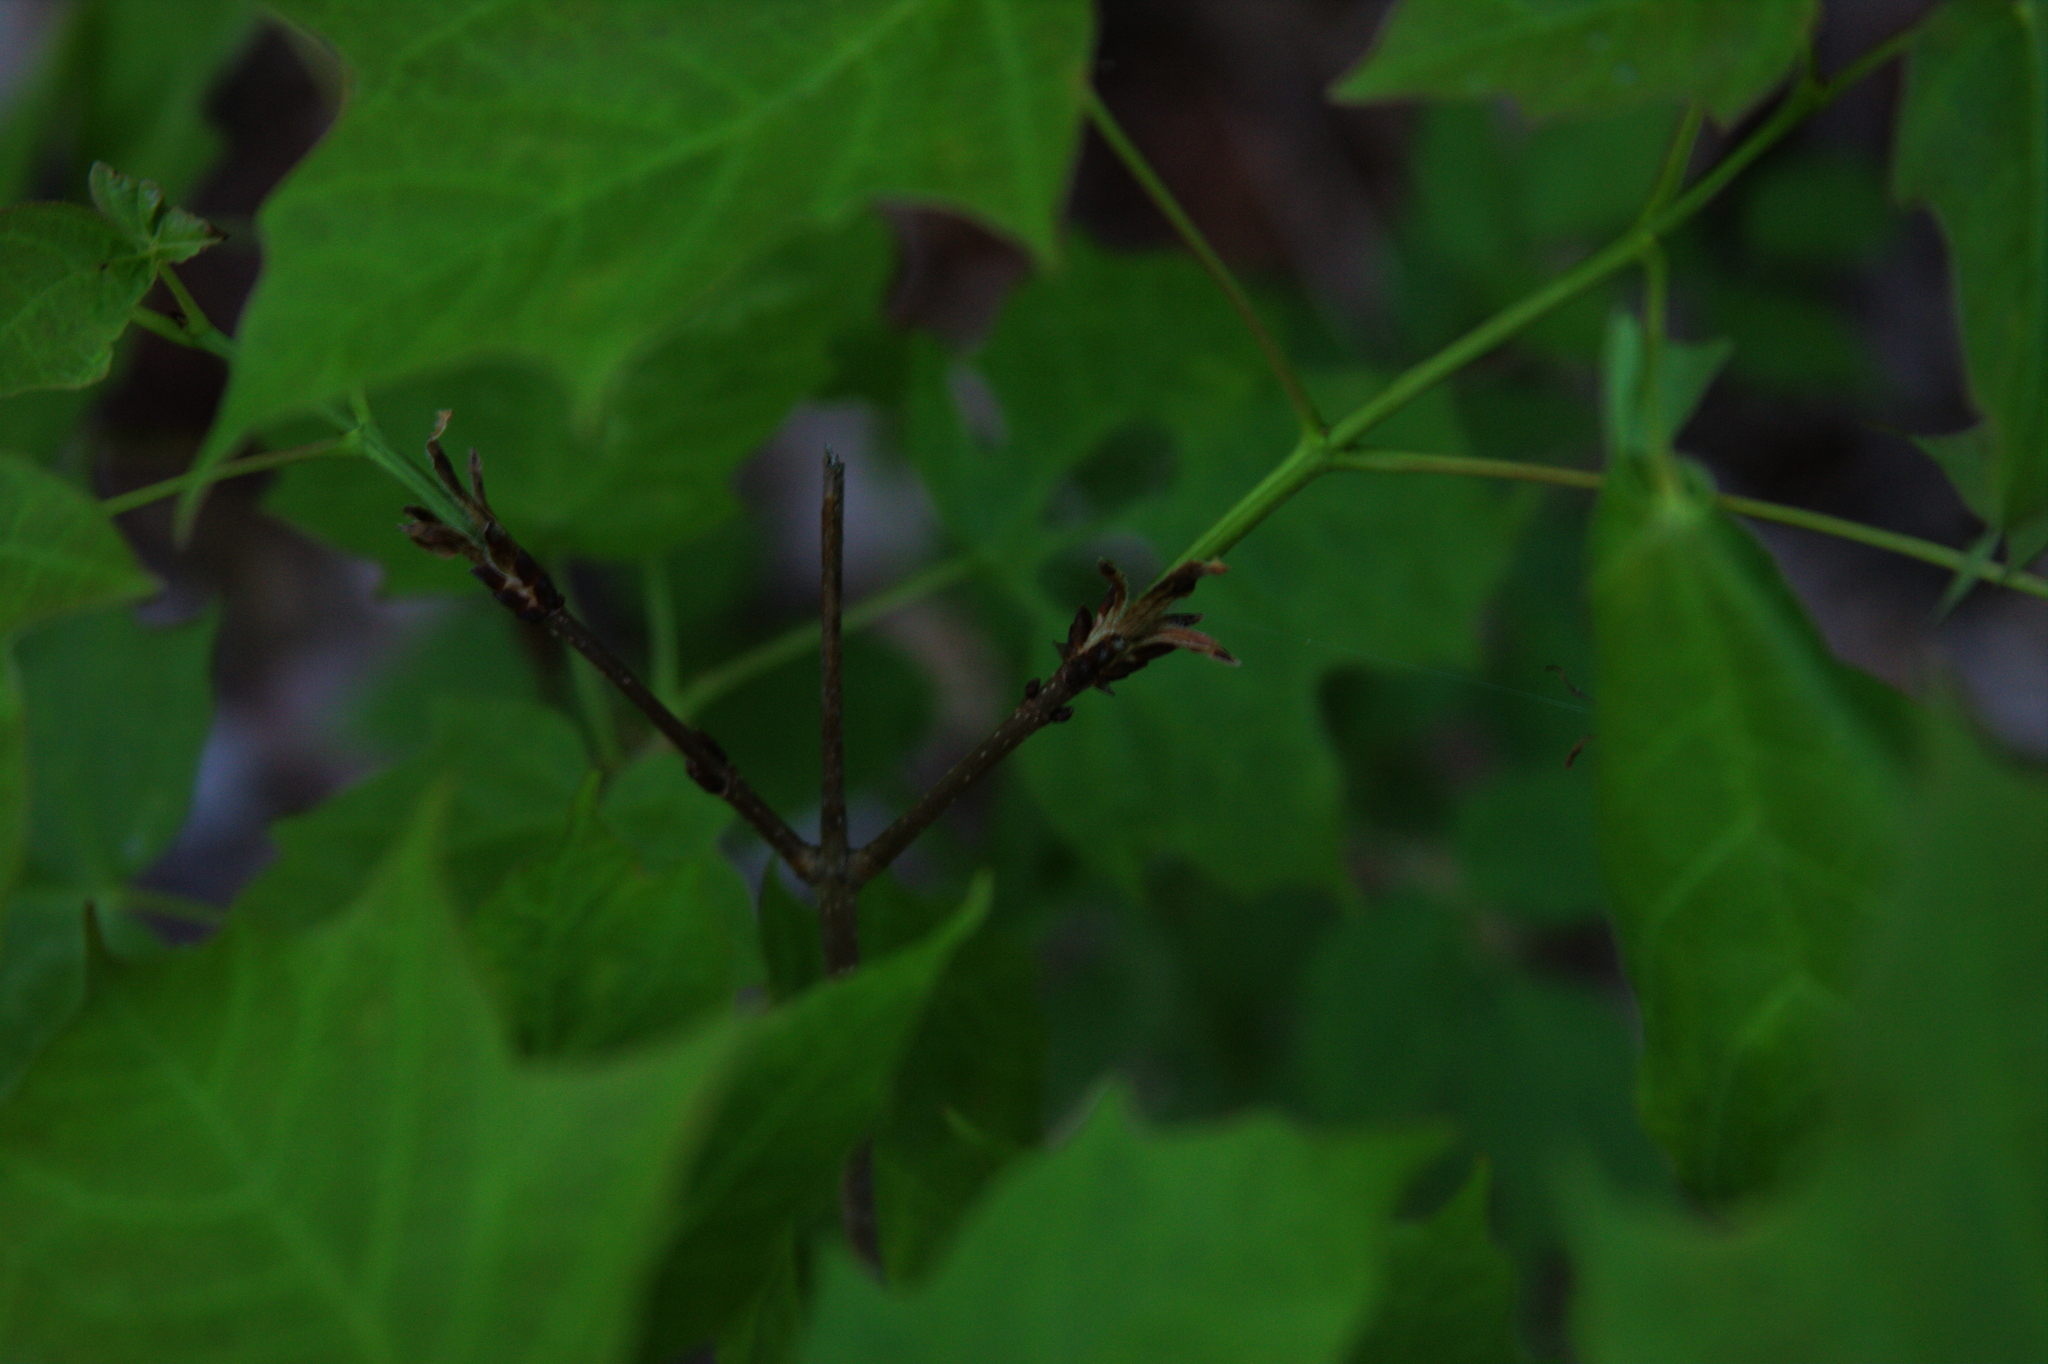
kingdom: Plantae
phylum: Tracheophyta
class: Magnoliopsida
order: Sapindales
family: Sapindaceae
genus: Acer
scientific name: Acer saccharum
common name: Sugar maple
